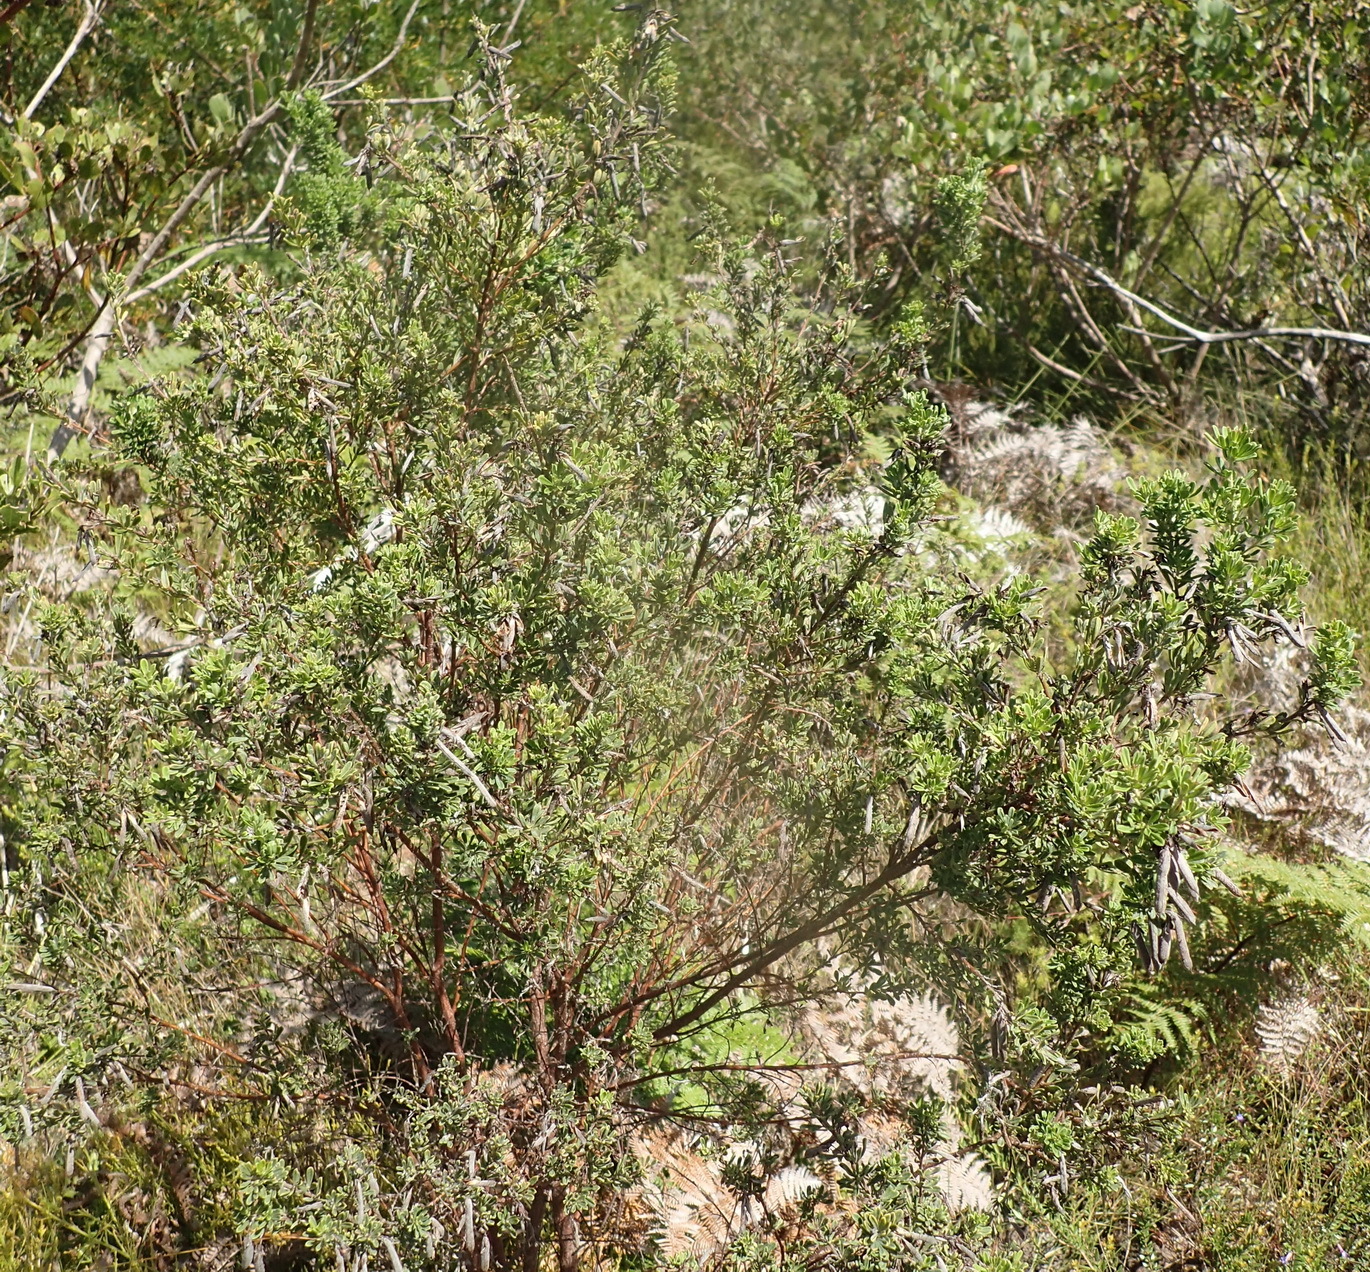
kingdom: Plantae
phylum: Tracheophyta
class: Magnoliopsida
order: Fabales
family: Fabaceae
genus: Indigofera
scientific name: Indigofera flabellata
